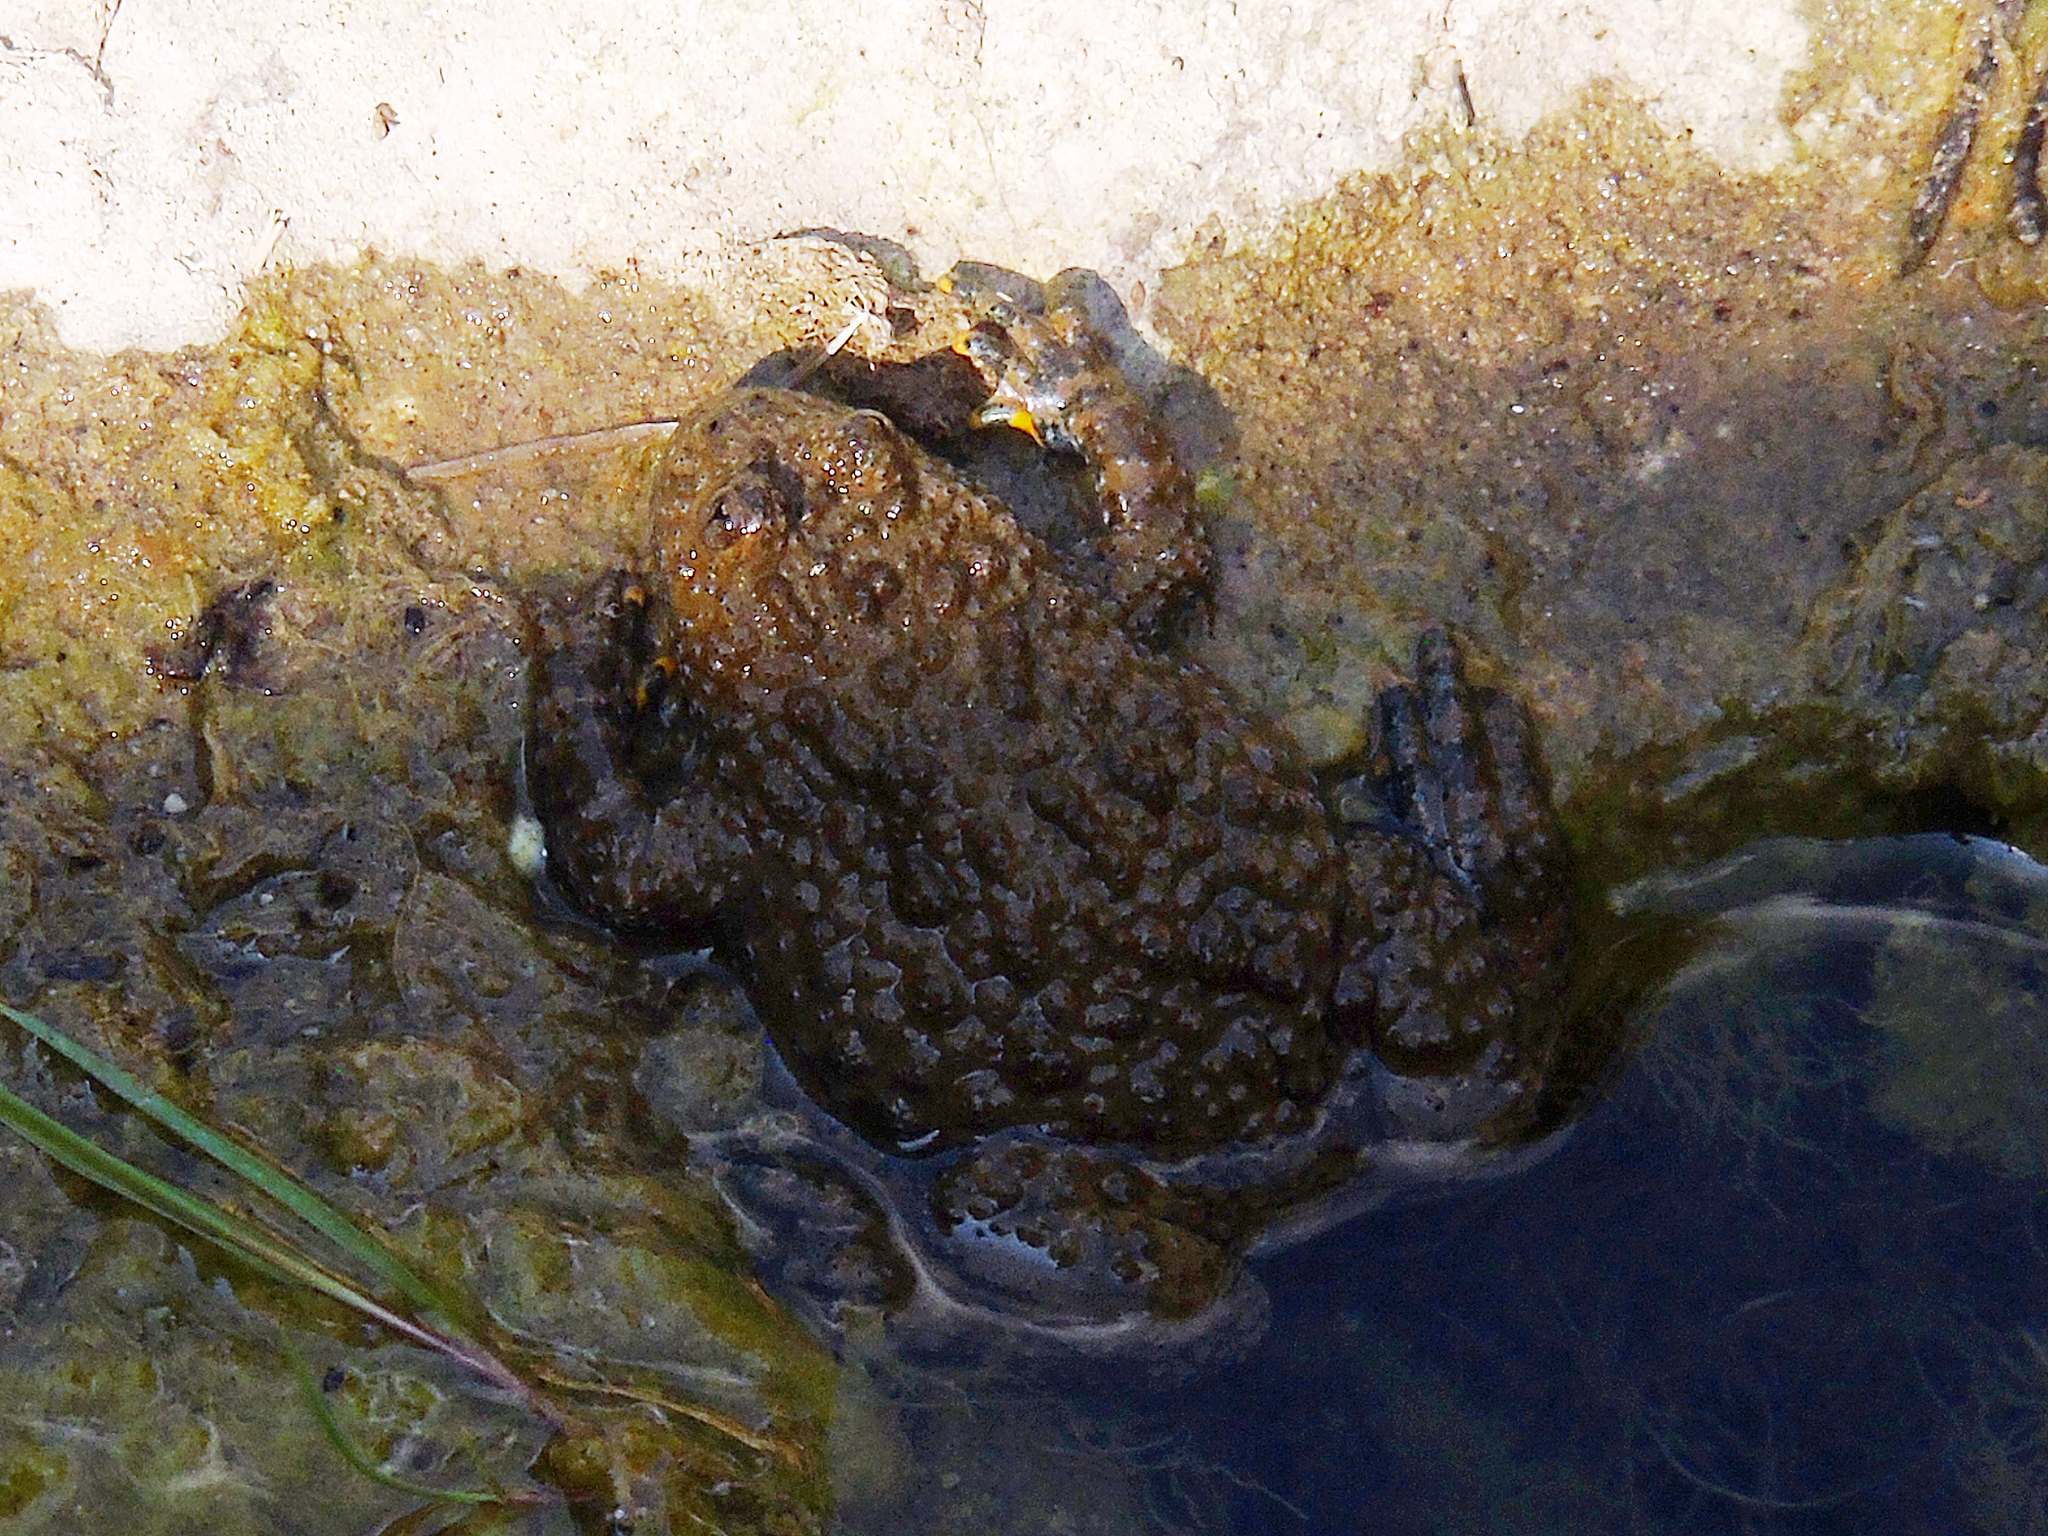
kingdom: Animalia
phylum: Chordata
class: Amphibia
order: Anura
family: Bombinatoridae
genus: Bombina
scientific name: Bombina variegata
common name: Yellow-bellied toad
